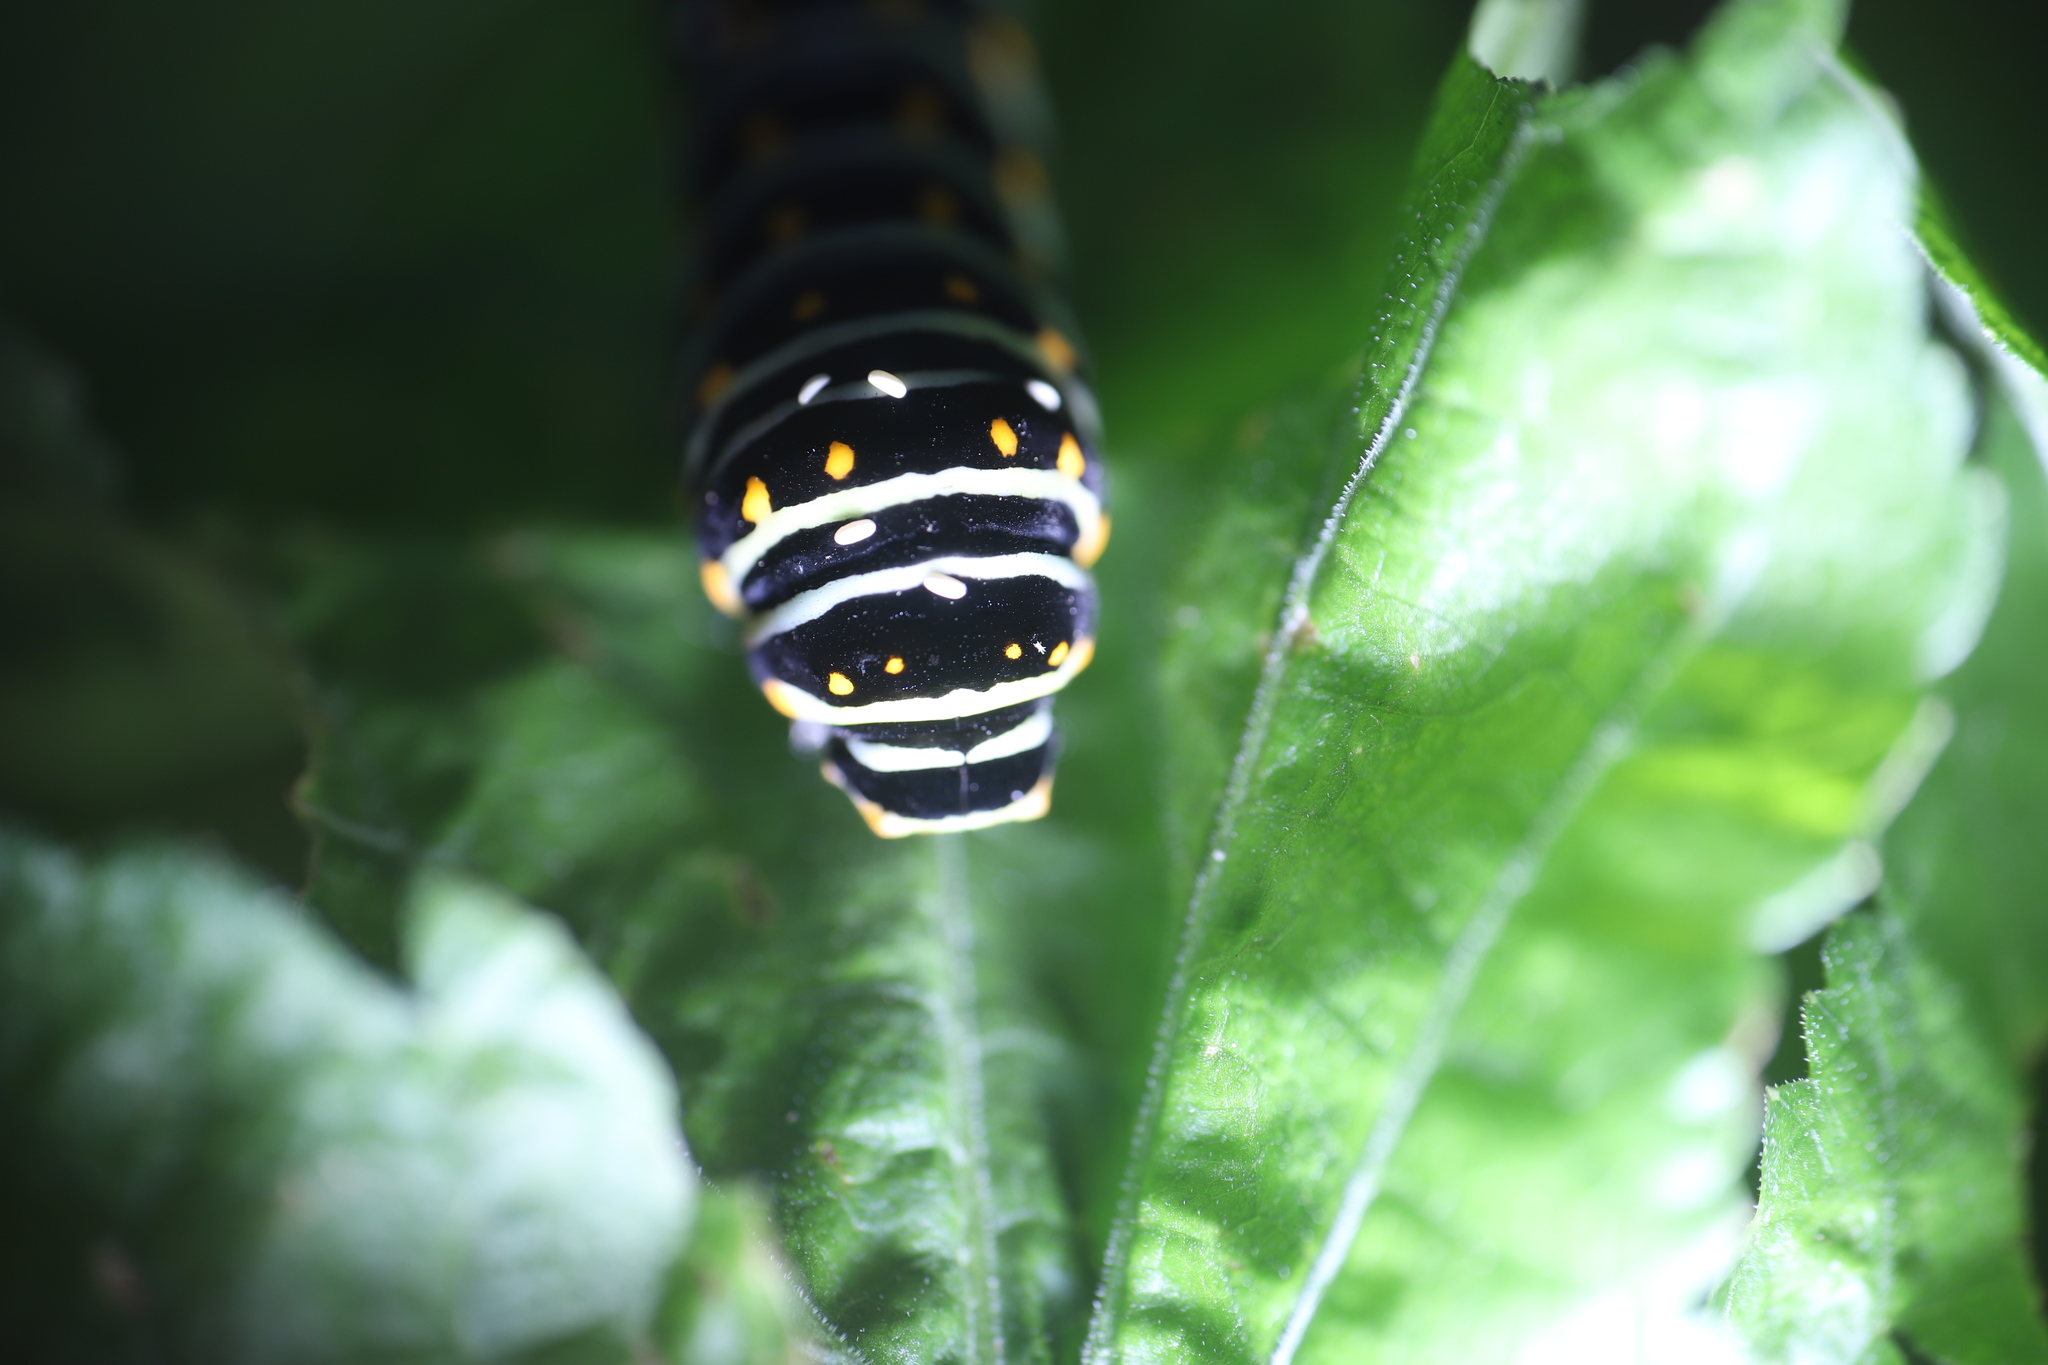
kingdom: Animalia
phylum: Arthropoda
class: Insecta
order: Lepidoptera
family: Papilionidae
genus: Papilio
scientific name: Papilio polyxenes
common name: Black swallowtail
